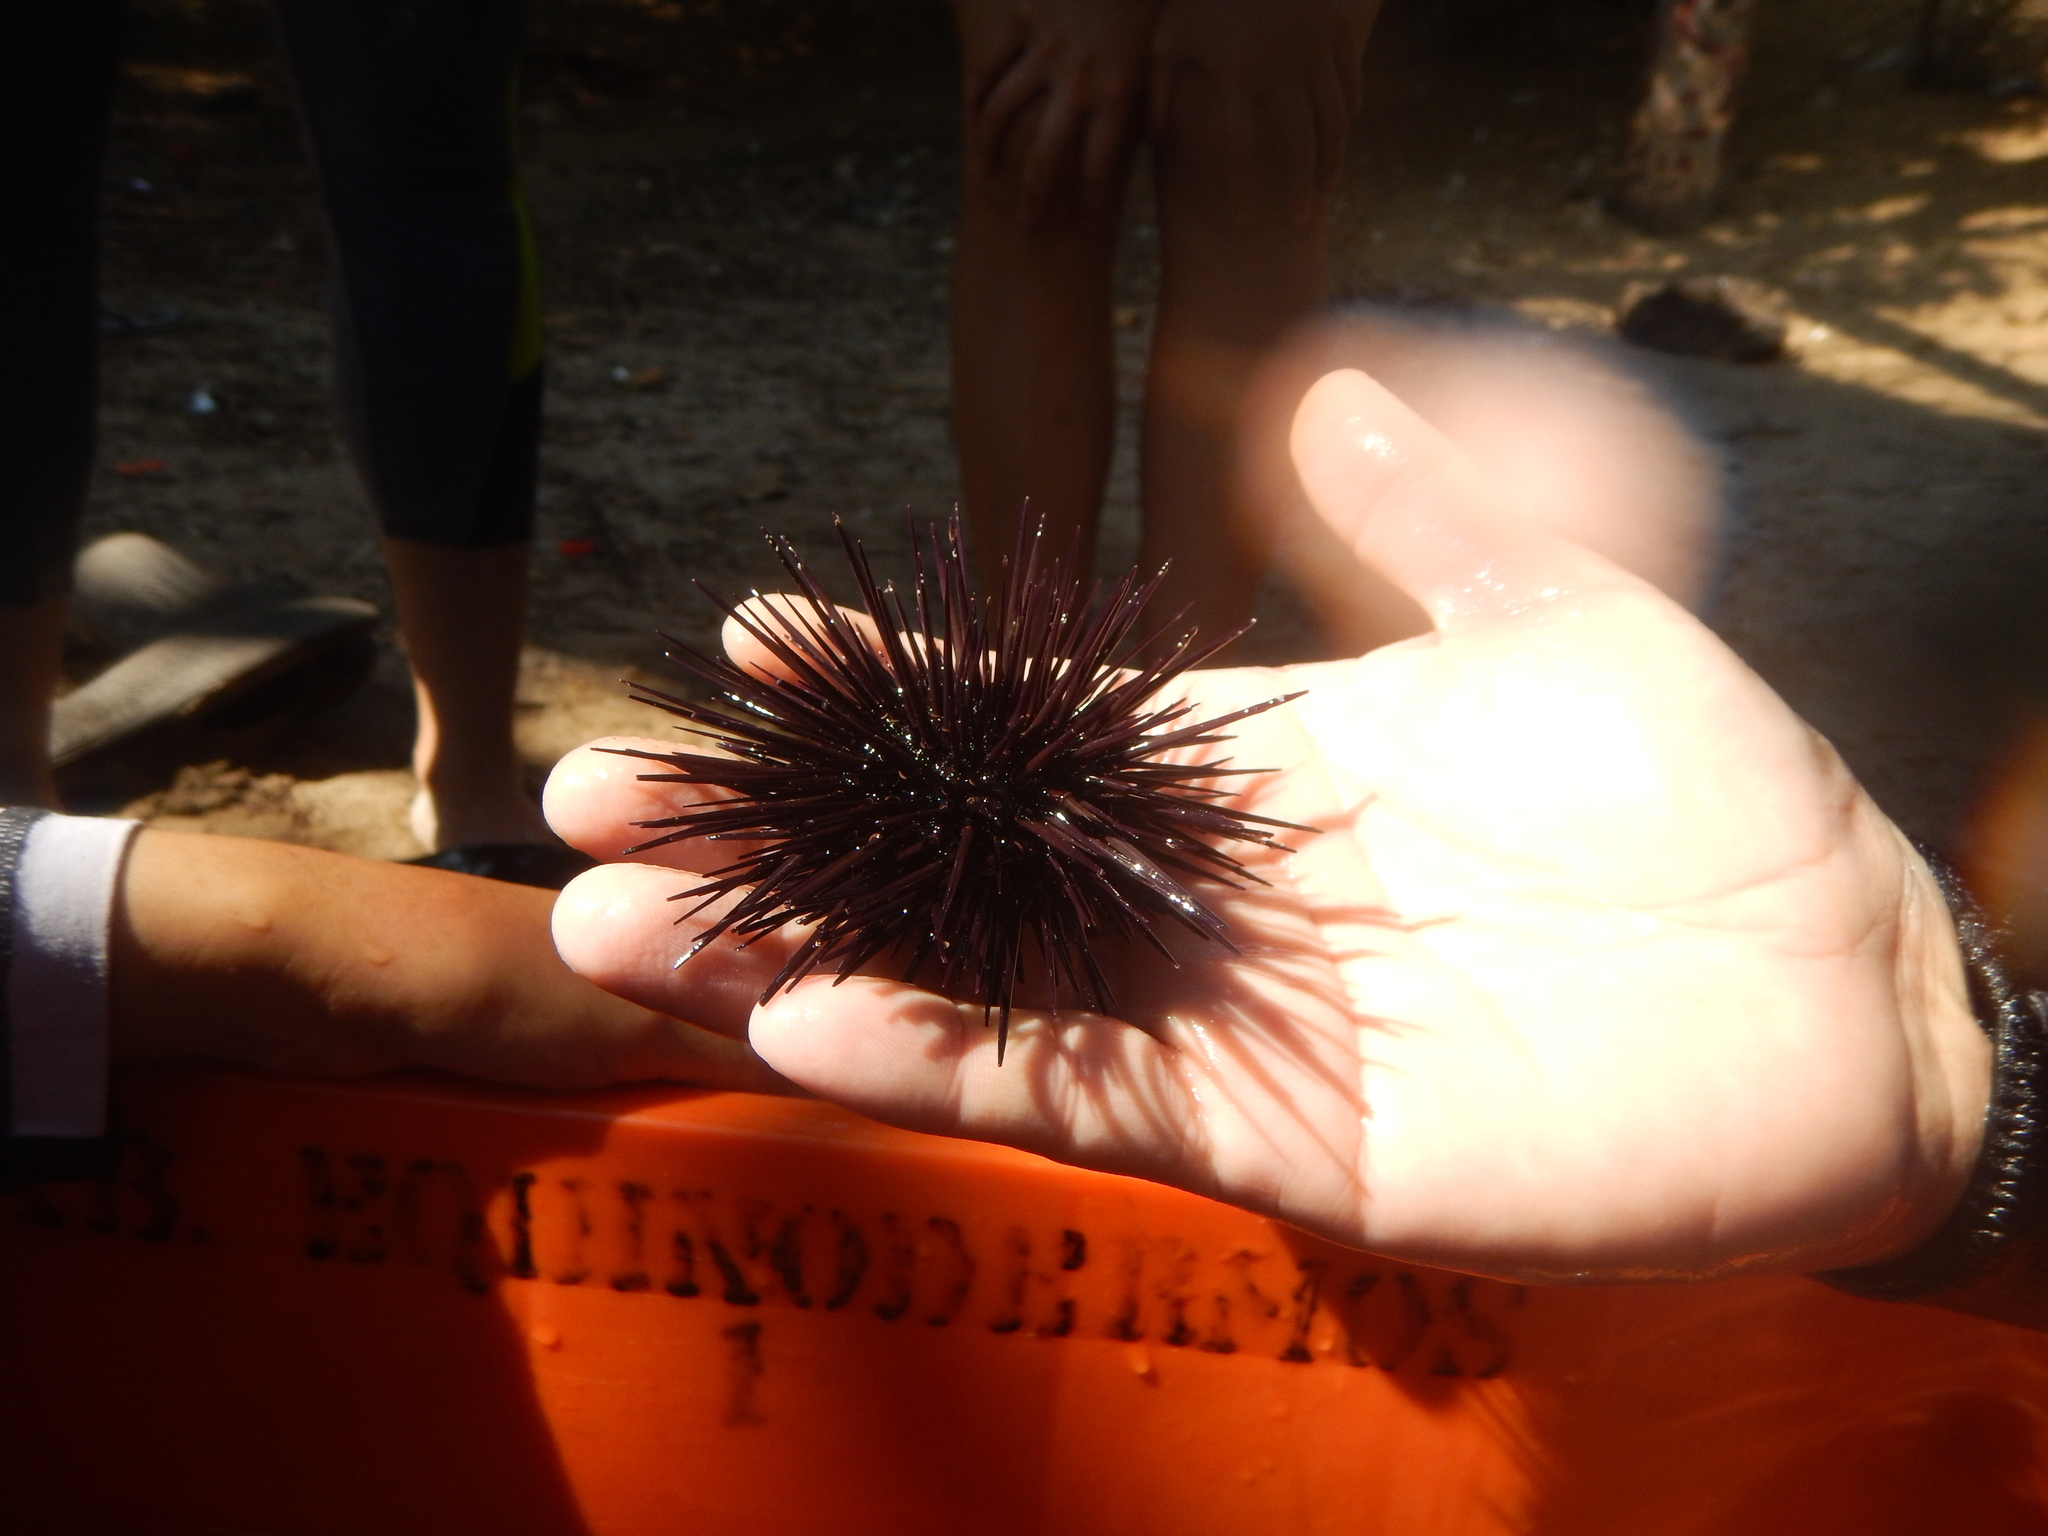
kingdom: Animalia
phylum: Echinodermata
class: Echinoidea
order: Camarodonta
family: Echinometridae
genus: Echinometra
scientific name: Echinometra vanbrunti
